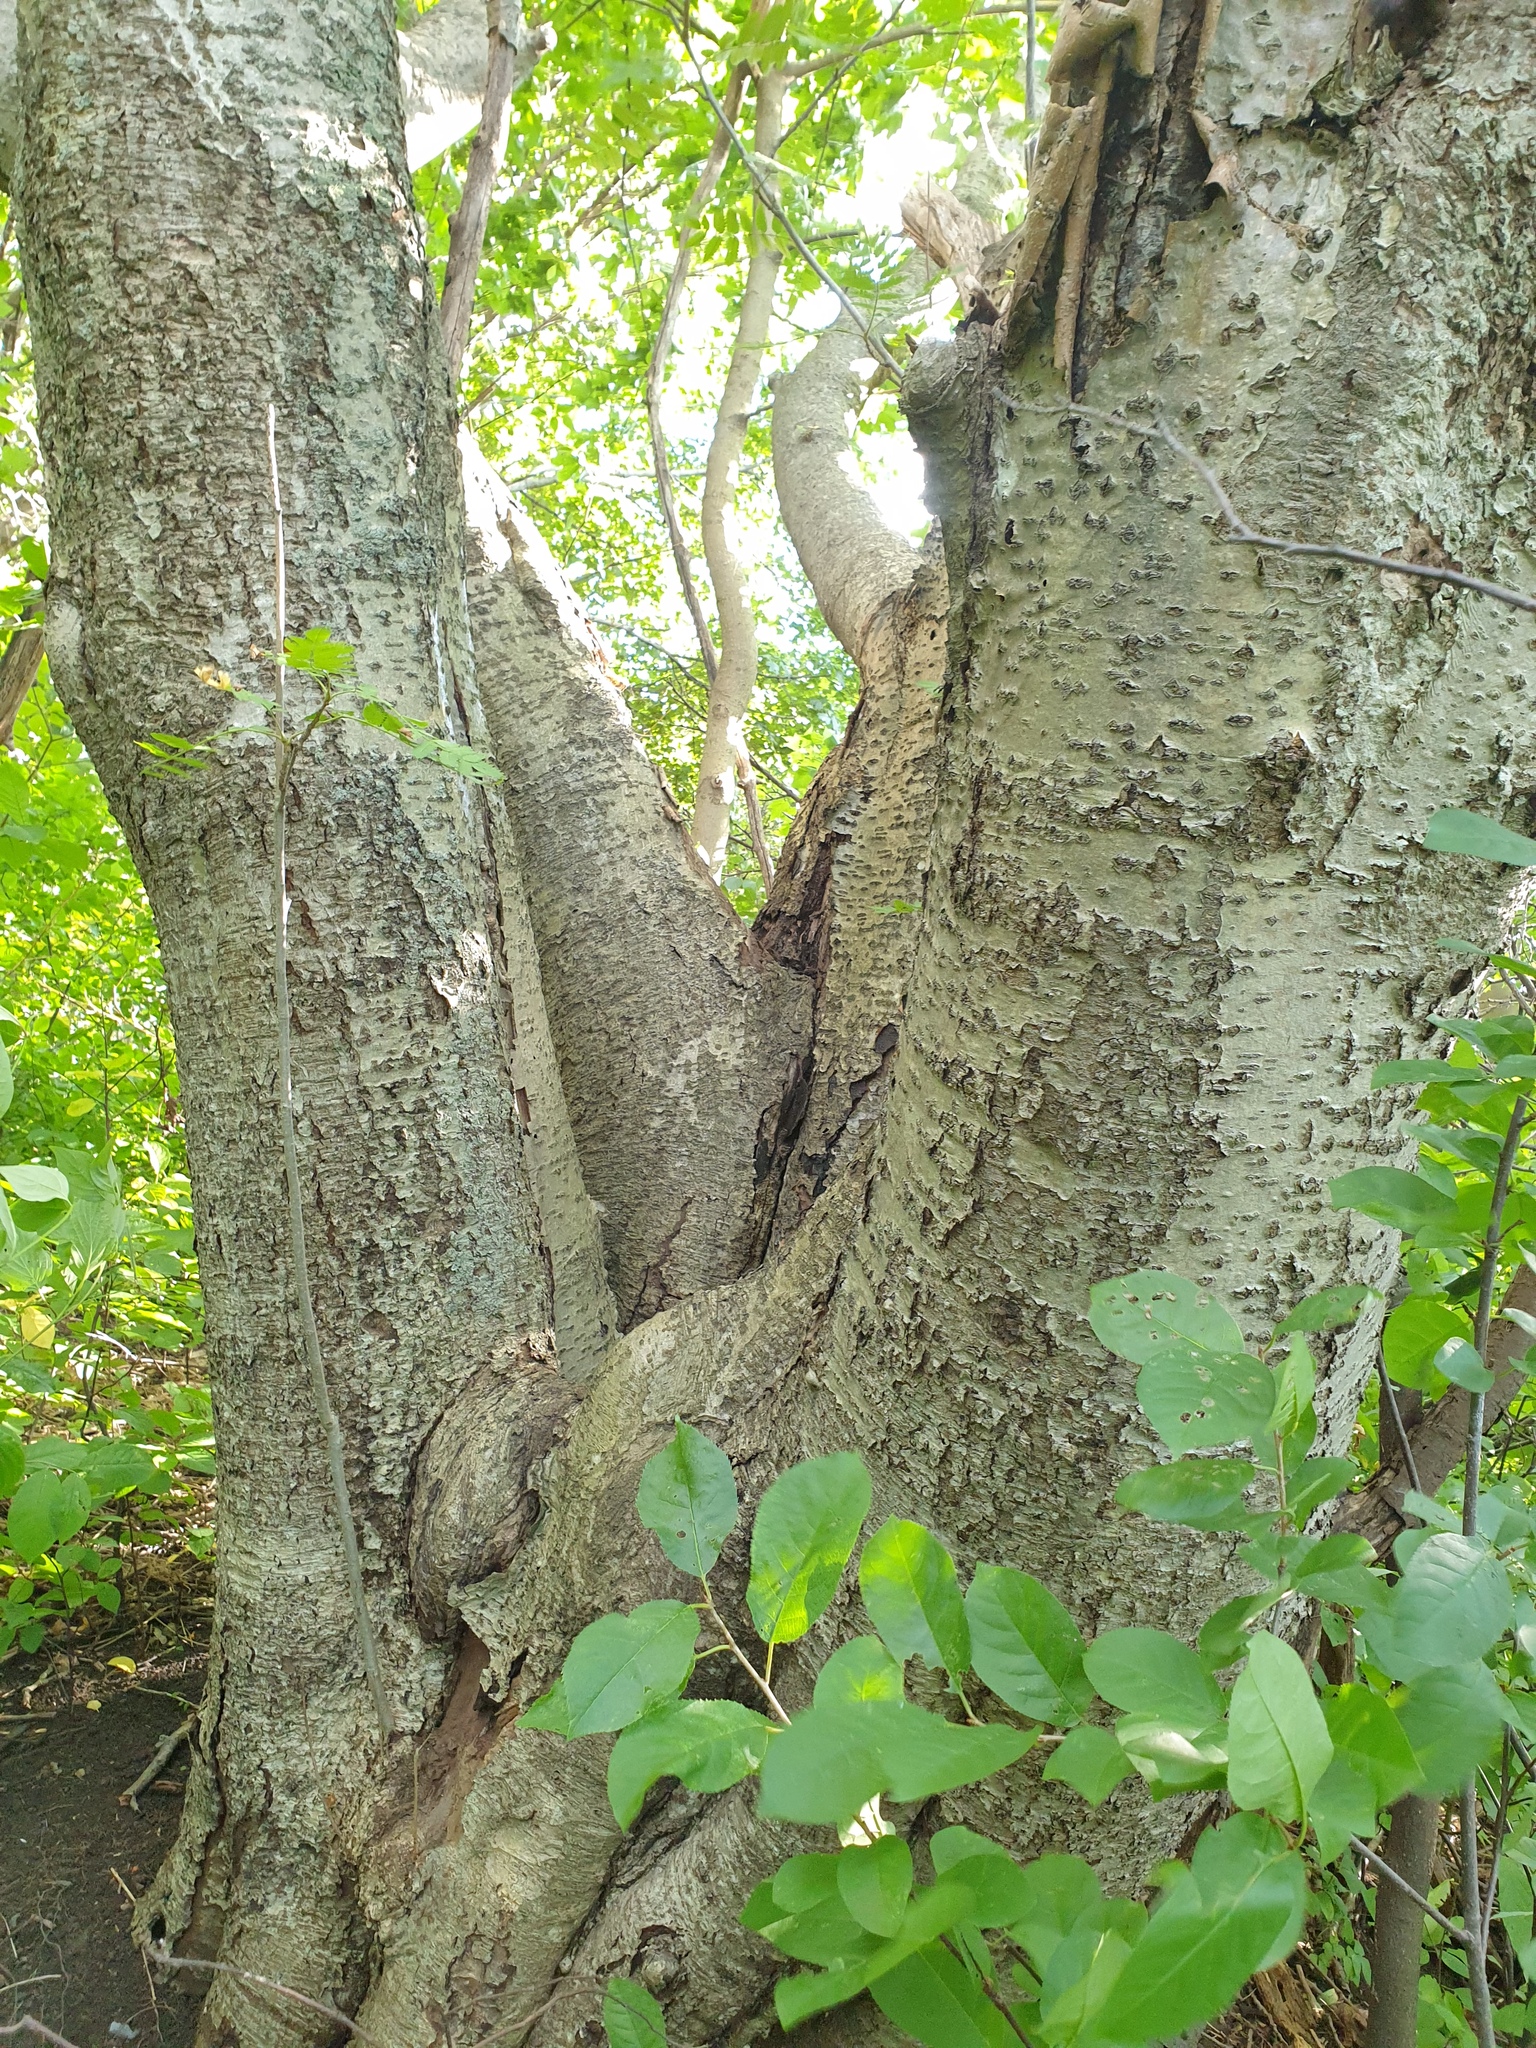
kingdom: Plantae
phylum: Tracheophyta
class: Magnoliopsida
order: Rosales
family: Rosaceae
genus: Sorbus
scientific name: Sorbus aucuparia
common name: Rowan
